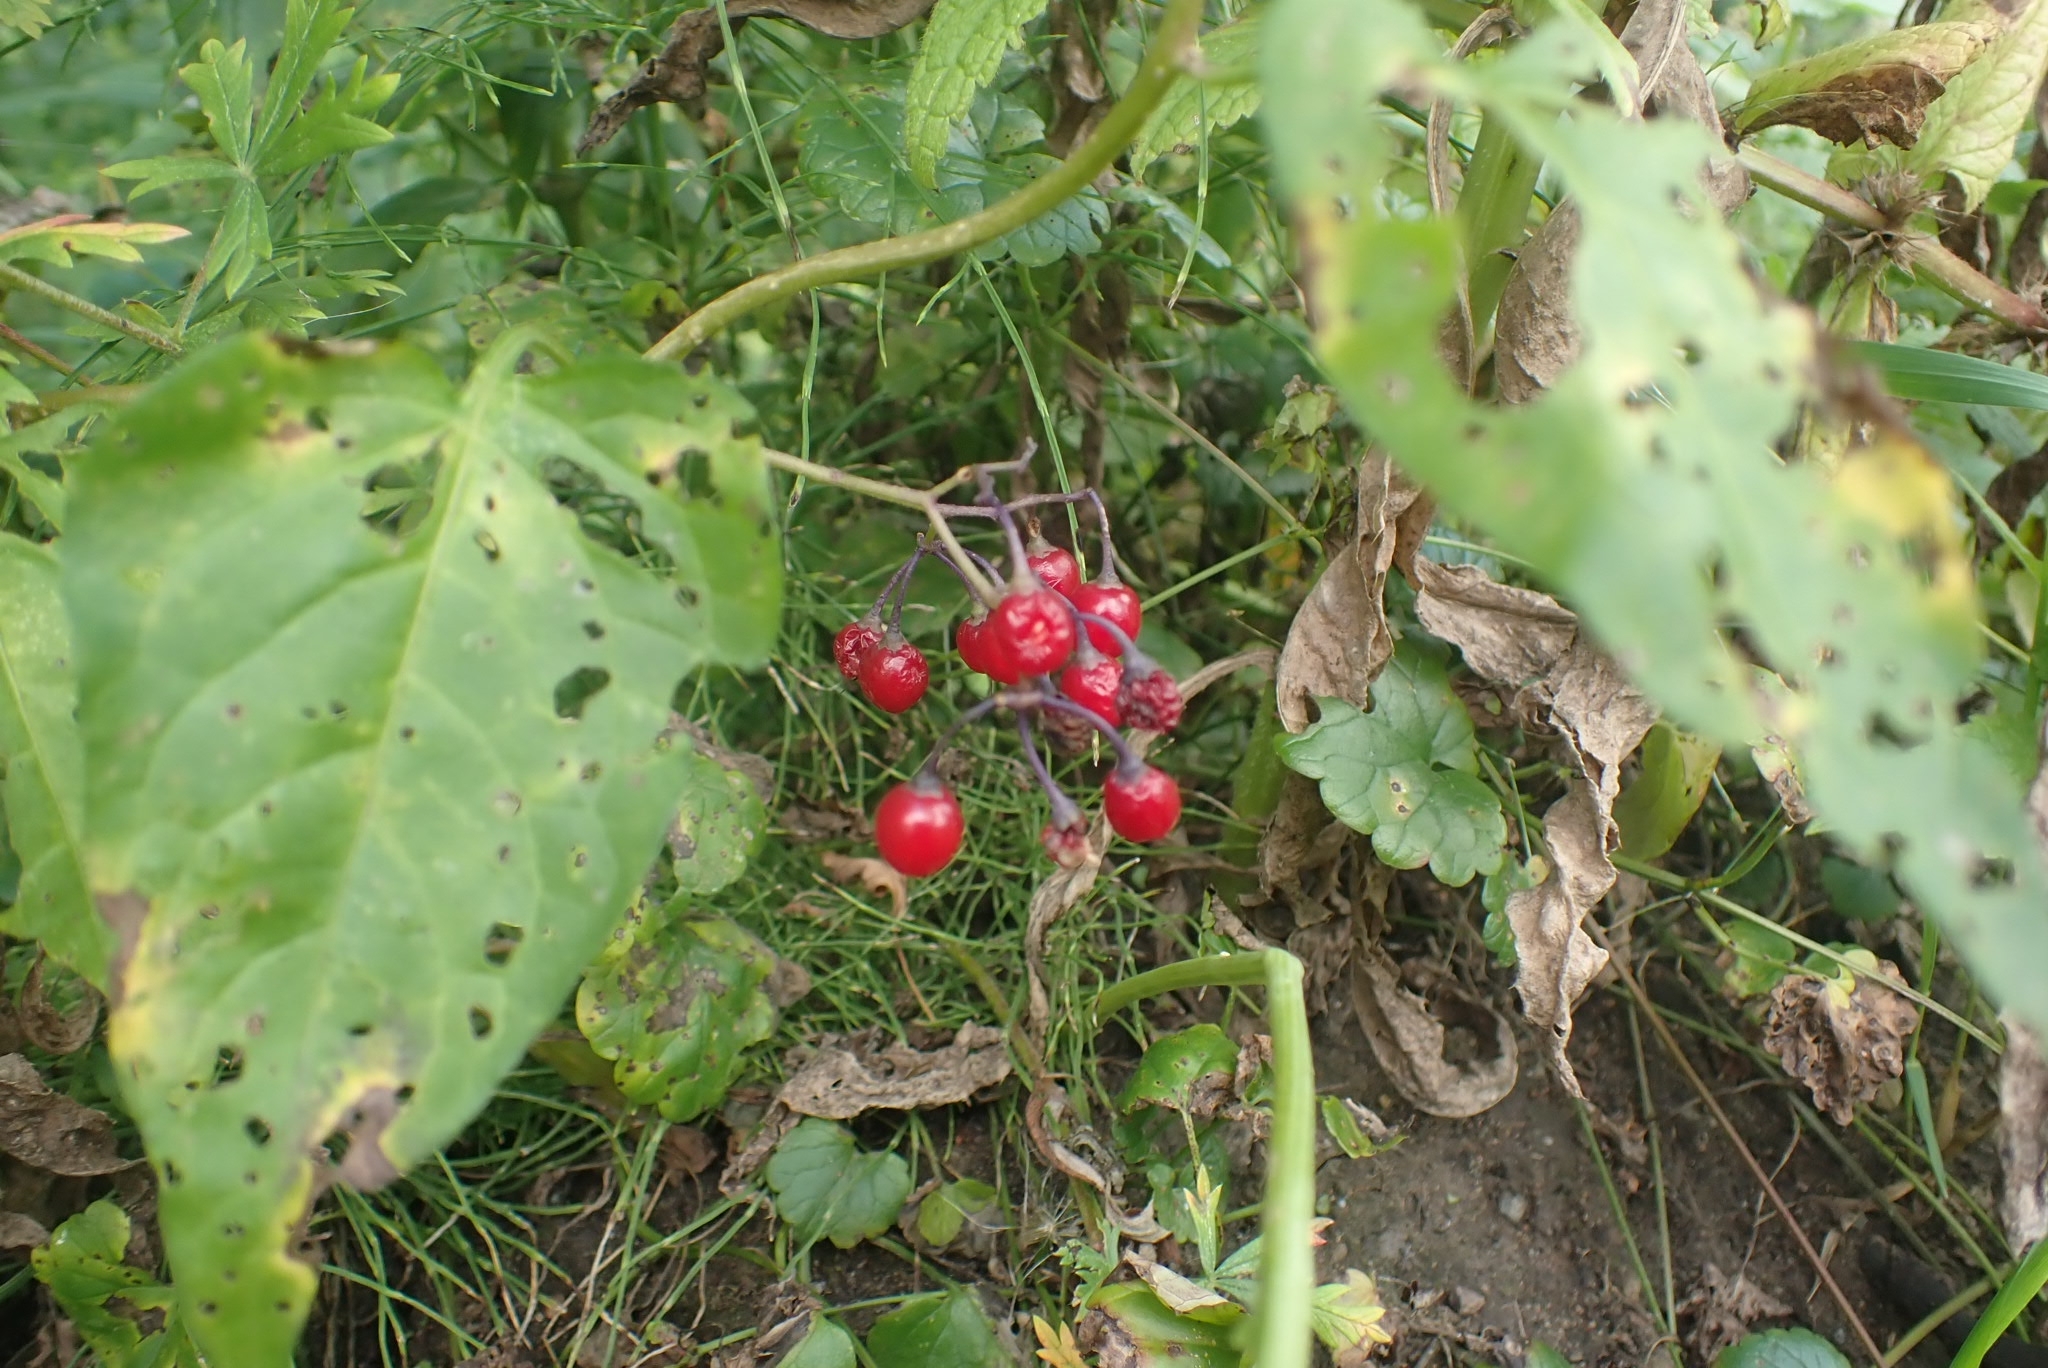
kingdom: Plantae
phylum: Tracheophyta
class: Magnoliopsida
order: Solanales
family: Solanaceae
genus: Solanum
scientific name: Solanum dulcamara
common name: Climbing nightshade
